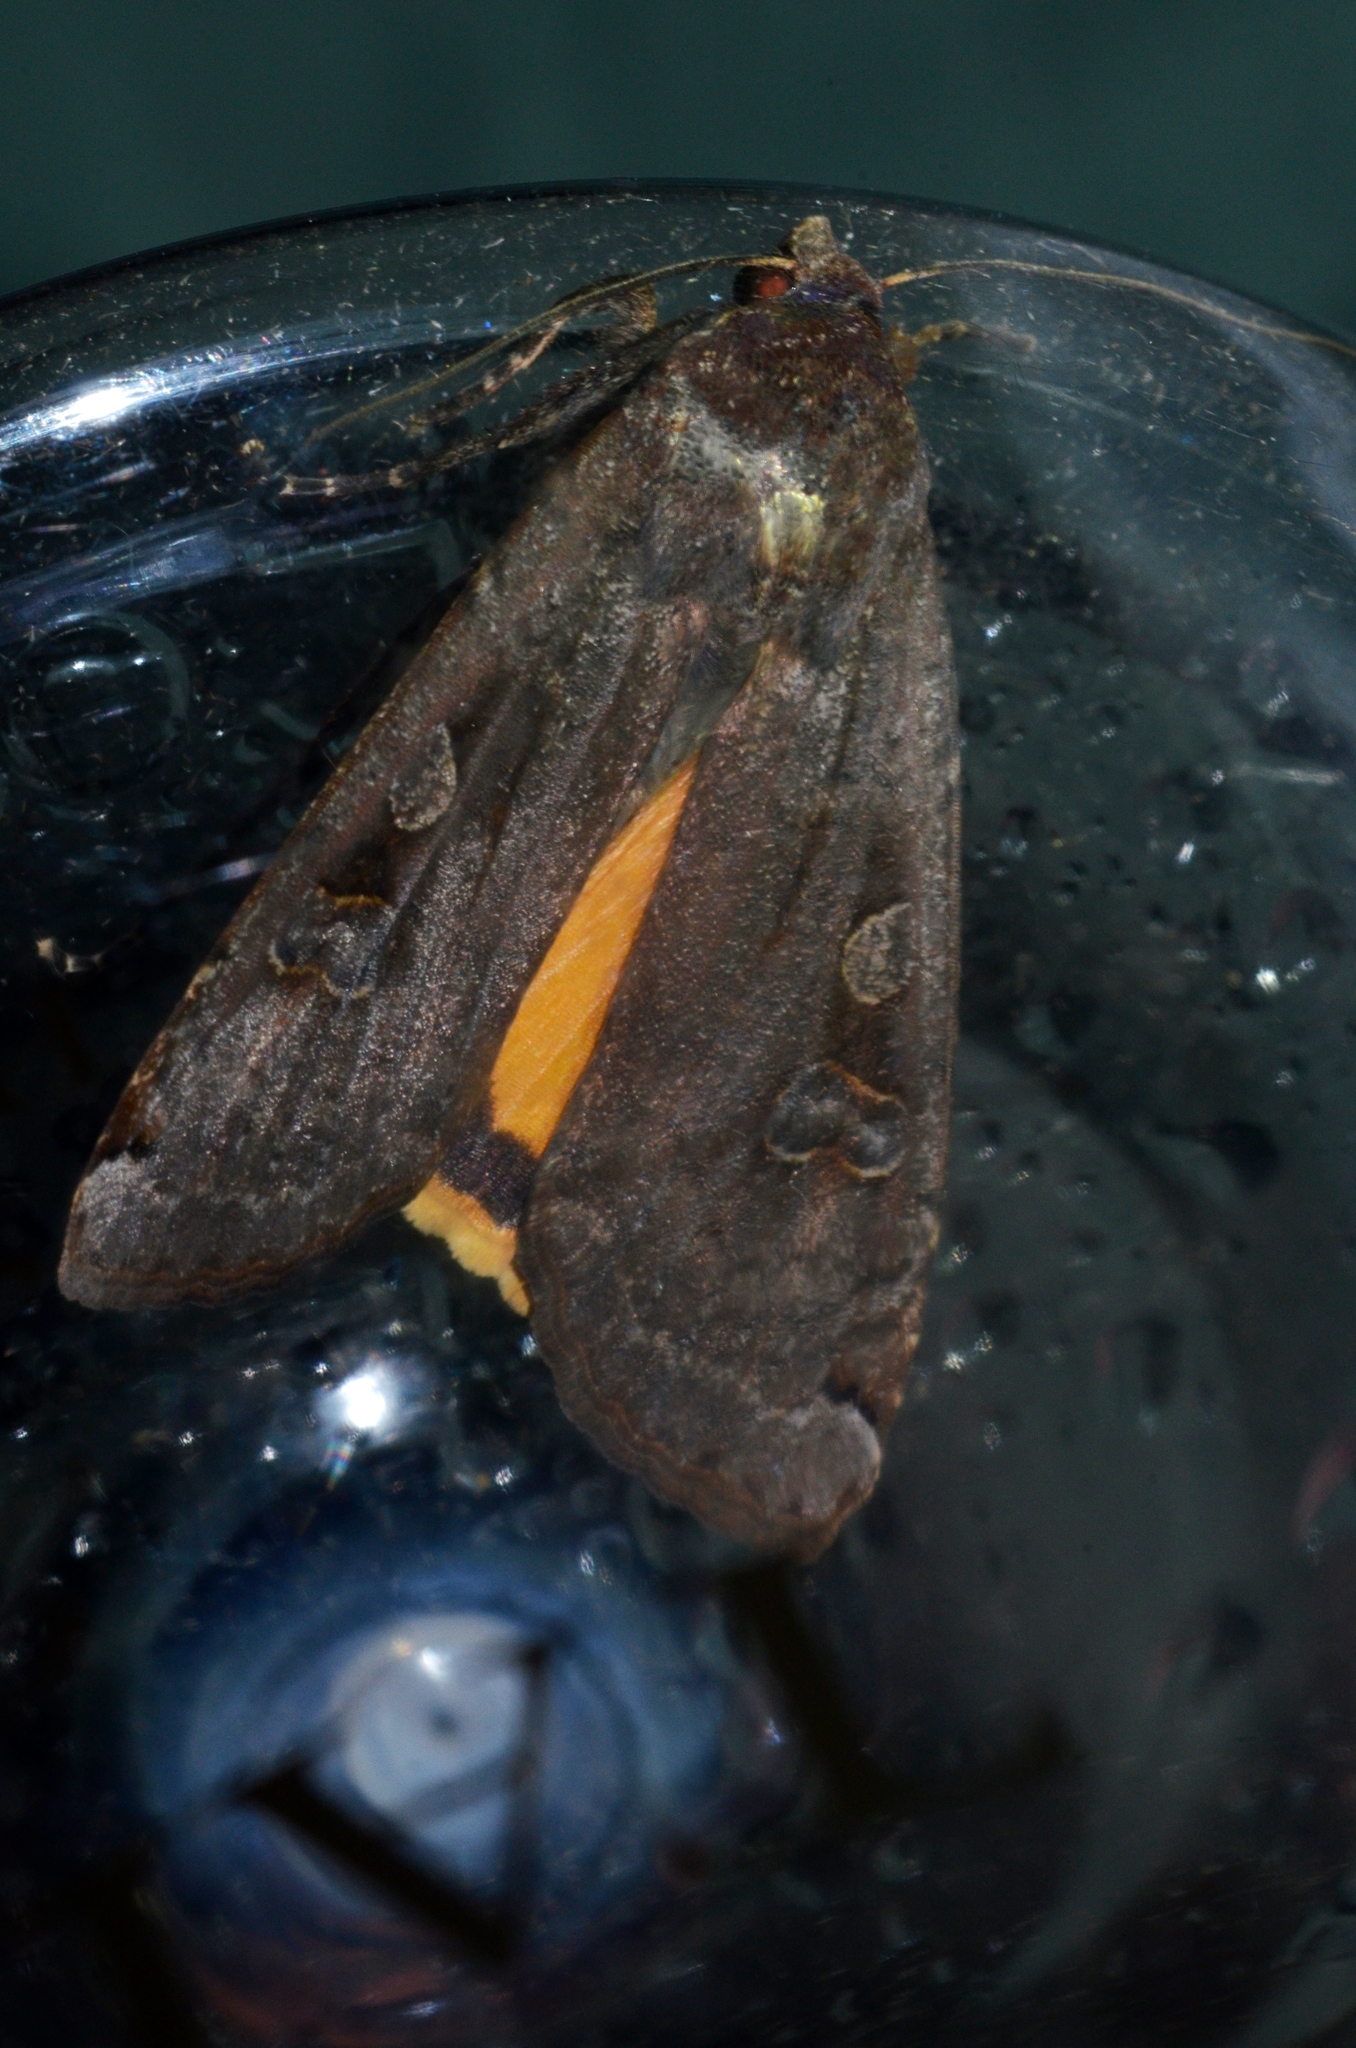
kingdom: Animalia
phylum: Arthropoda
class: Insecta
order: Lepidoptera
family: Noctuidae
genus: Noctua
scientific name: Noctua pronuba
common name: Large yellow underwing
